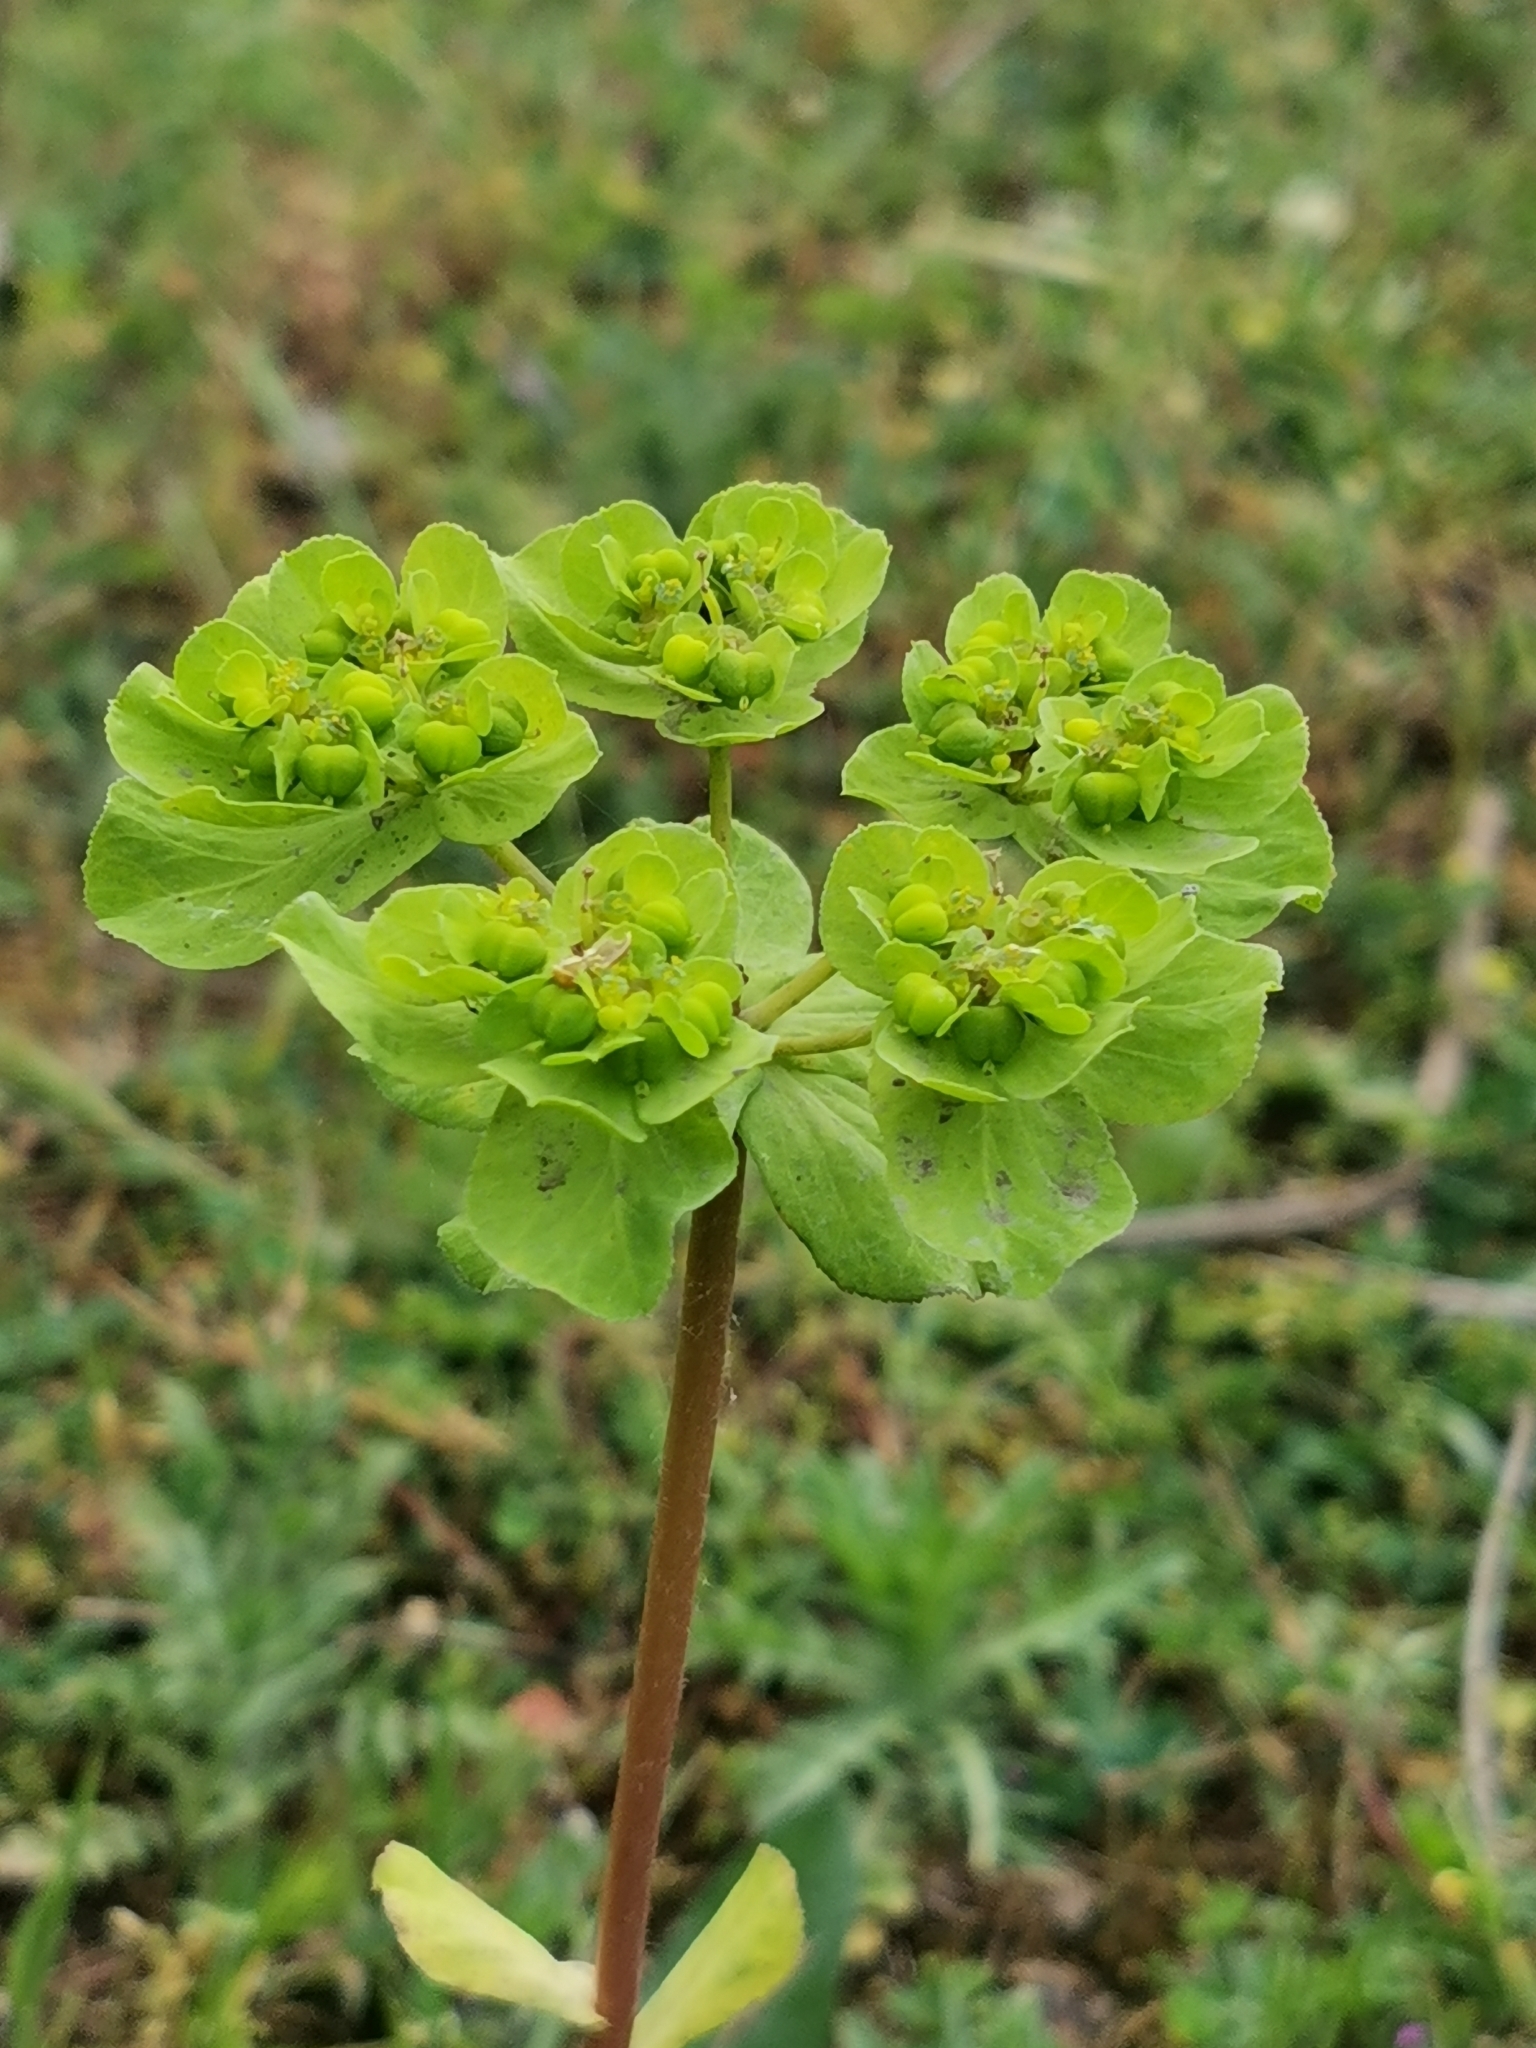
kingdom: Plantae
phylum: Tracheophyta
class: Magnoliopsida
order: Malpighiales
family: Euphorbiaceae
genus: Euphorbia
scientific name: Euphorbia helioscopia
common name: Sun spurge
